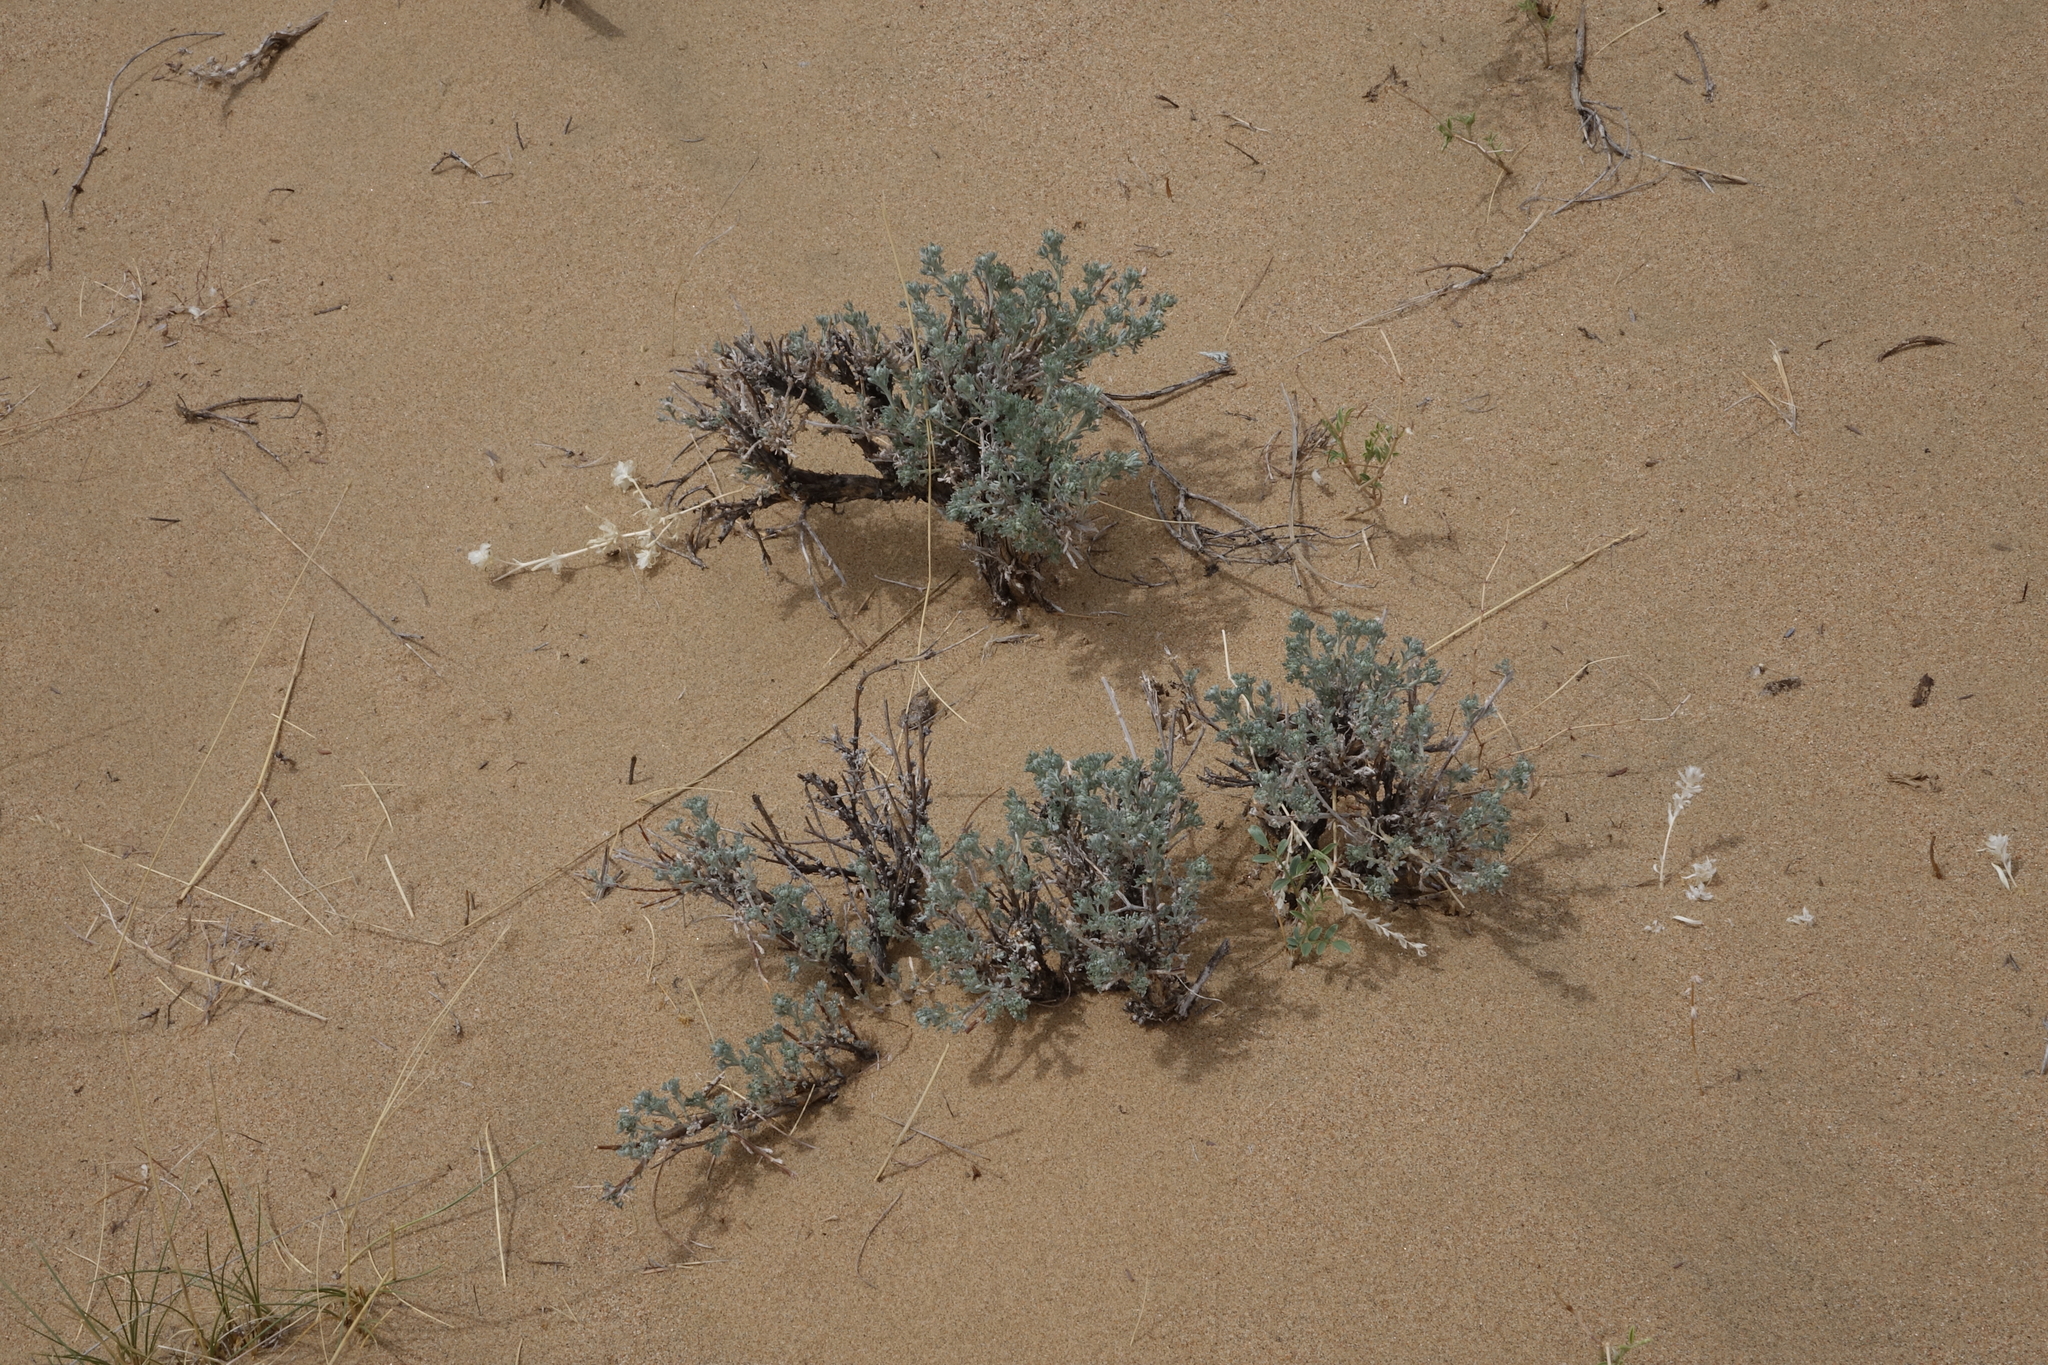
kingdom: Plantae
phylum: Tracheophyta
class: Magnoliopsida
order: Asterales
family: Asteraceae
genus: Artemisia
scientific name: Artemisia frigida
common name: Prairie sagewort
